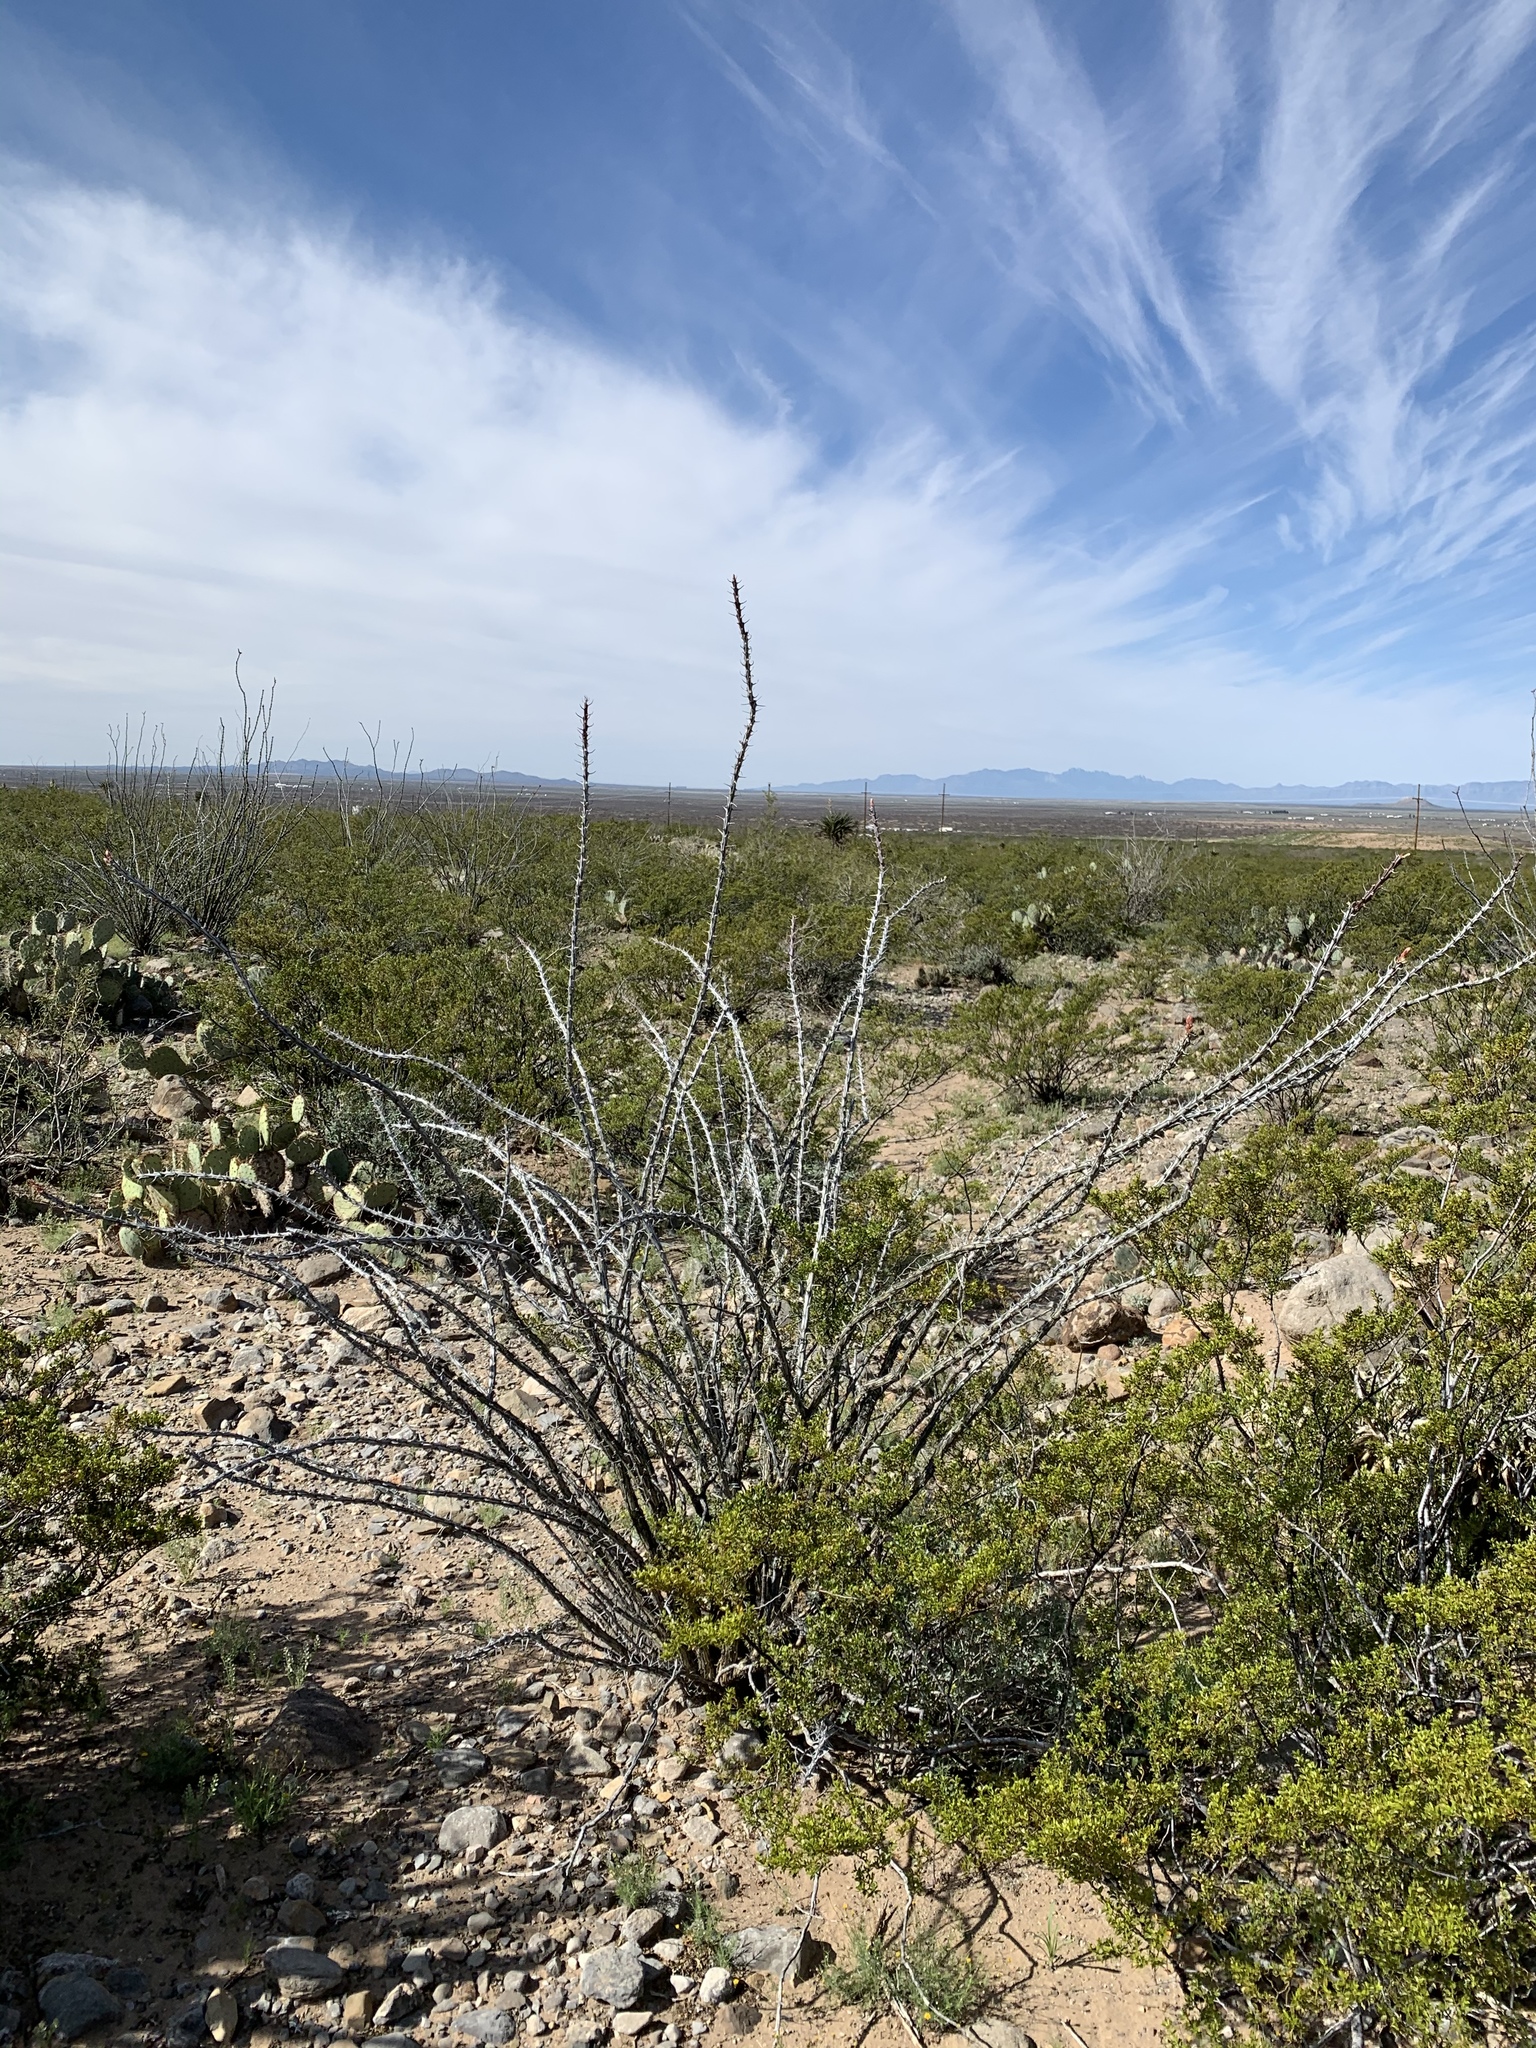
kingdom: Plantae
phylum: Tracheophyta
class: Magnoliopsida
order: Ericales
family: Fouquieriaceae
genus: Fouquieria
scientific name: Fouquieria splendens
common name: Vine-cactus
